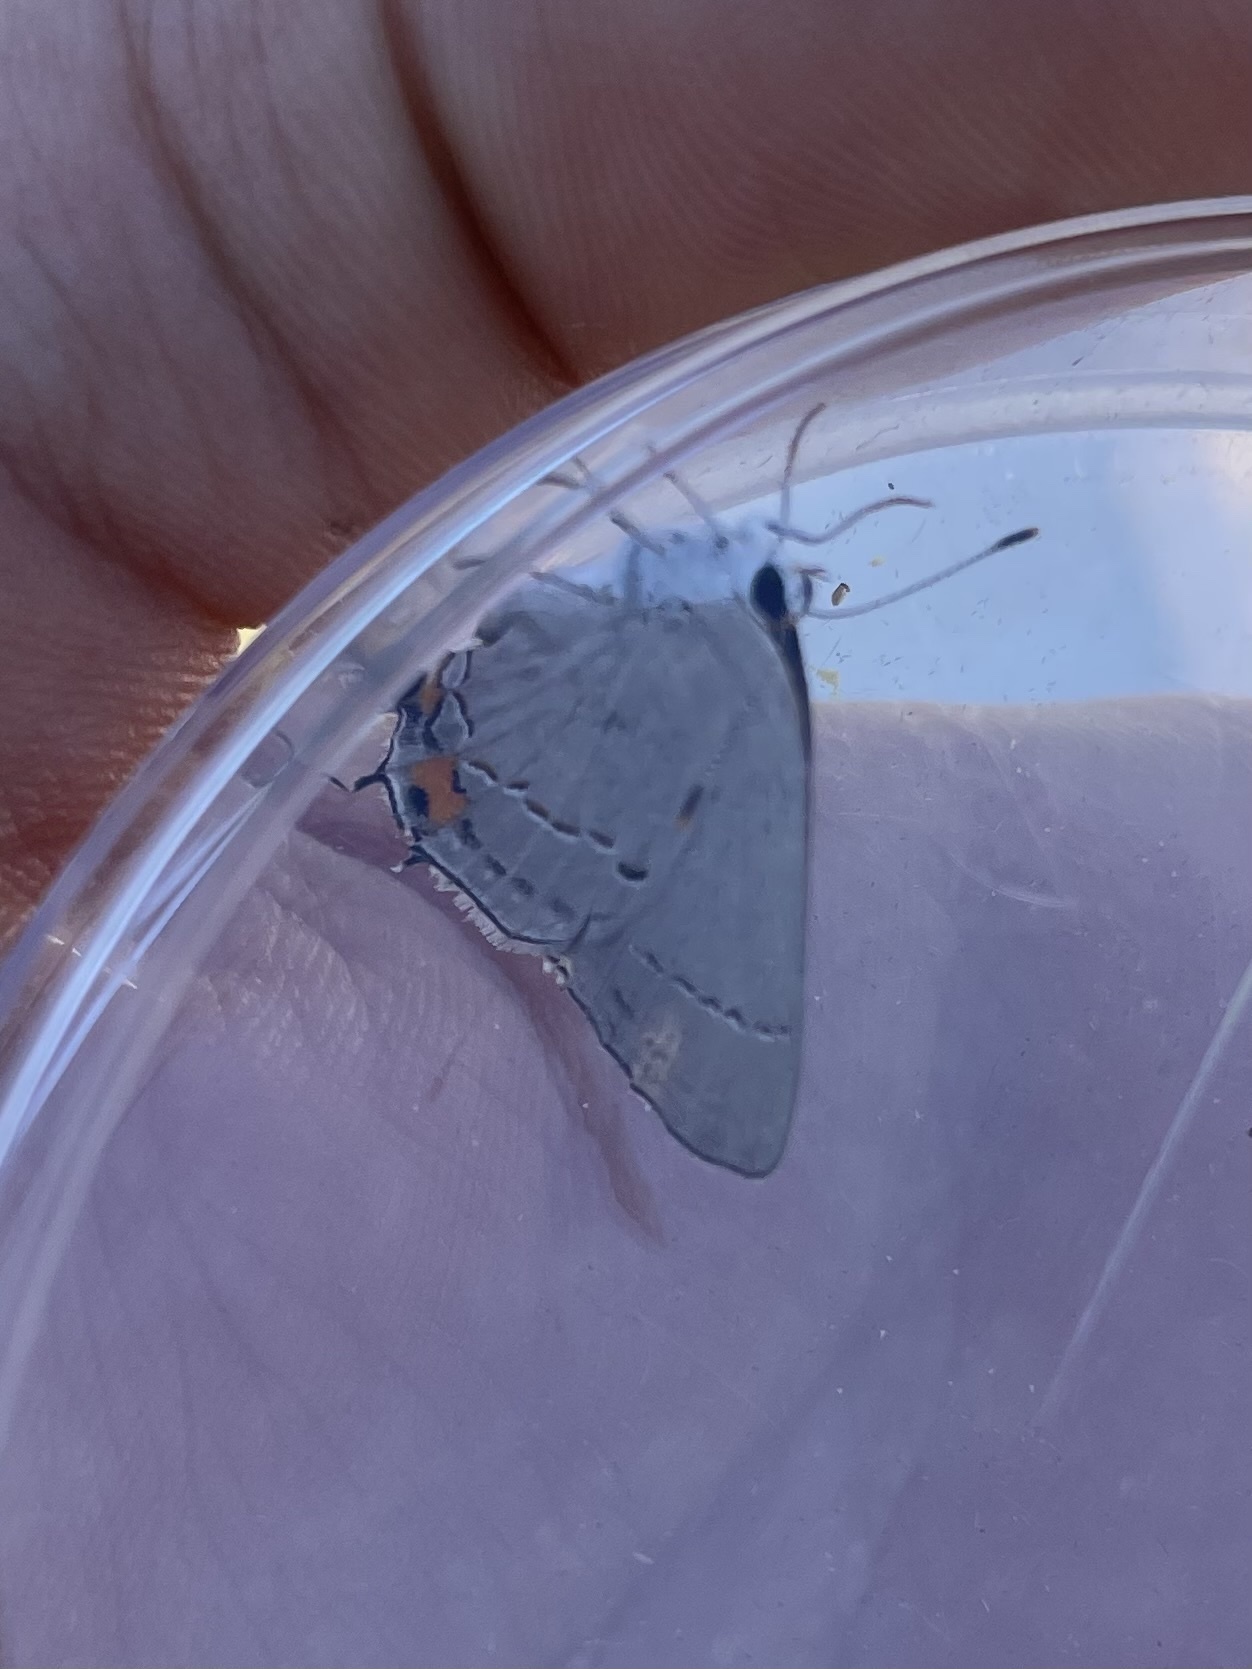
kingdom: Animalia
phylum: Arthropoda
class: Insecta
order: Lepidoptera
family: Lycaenidae
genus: Strymon
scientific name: Strymon melinus
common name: Gray hairstreak
